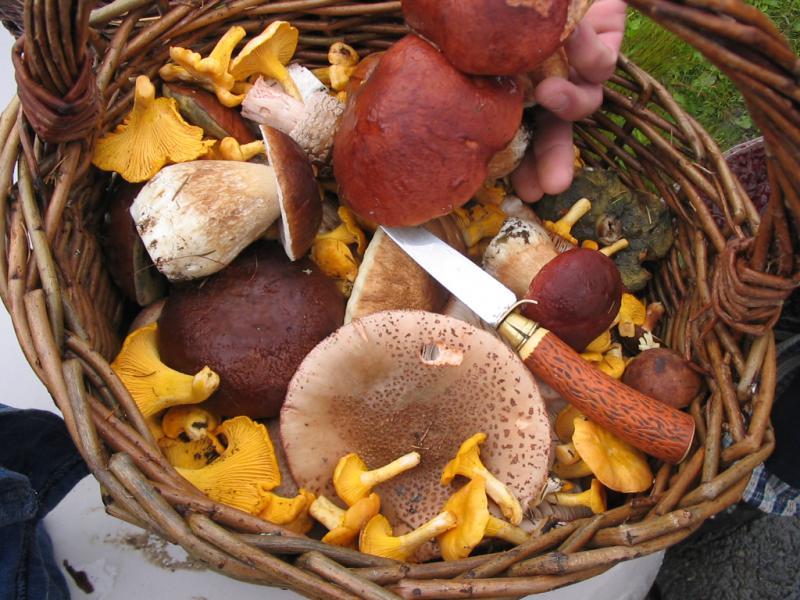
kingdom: Fungi
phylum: Basidiomycota
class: Agaricomycetes
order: Cantharellales
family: Hydnaceae
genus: Cantharellus
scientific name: Cantharellus cibarius
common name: Chanterelle
